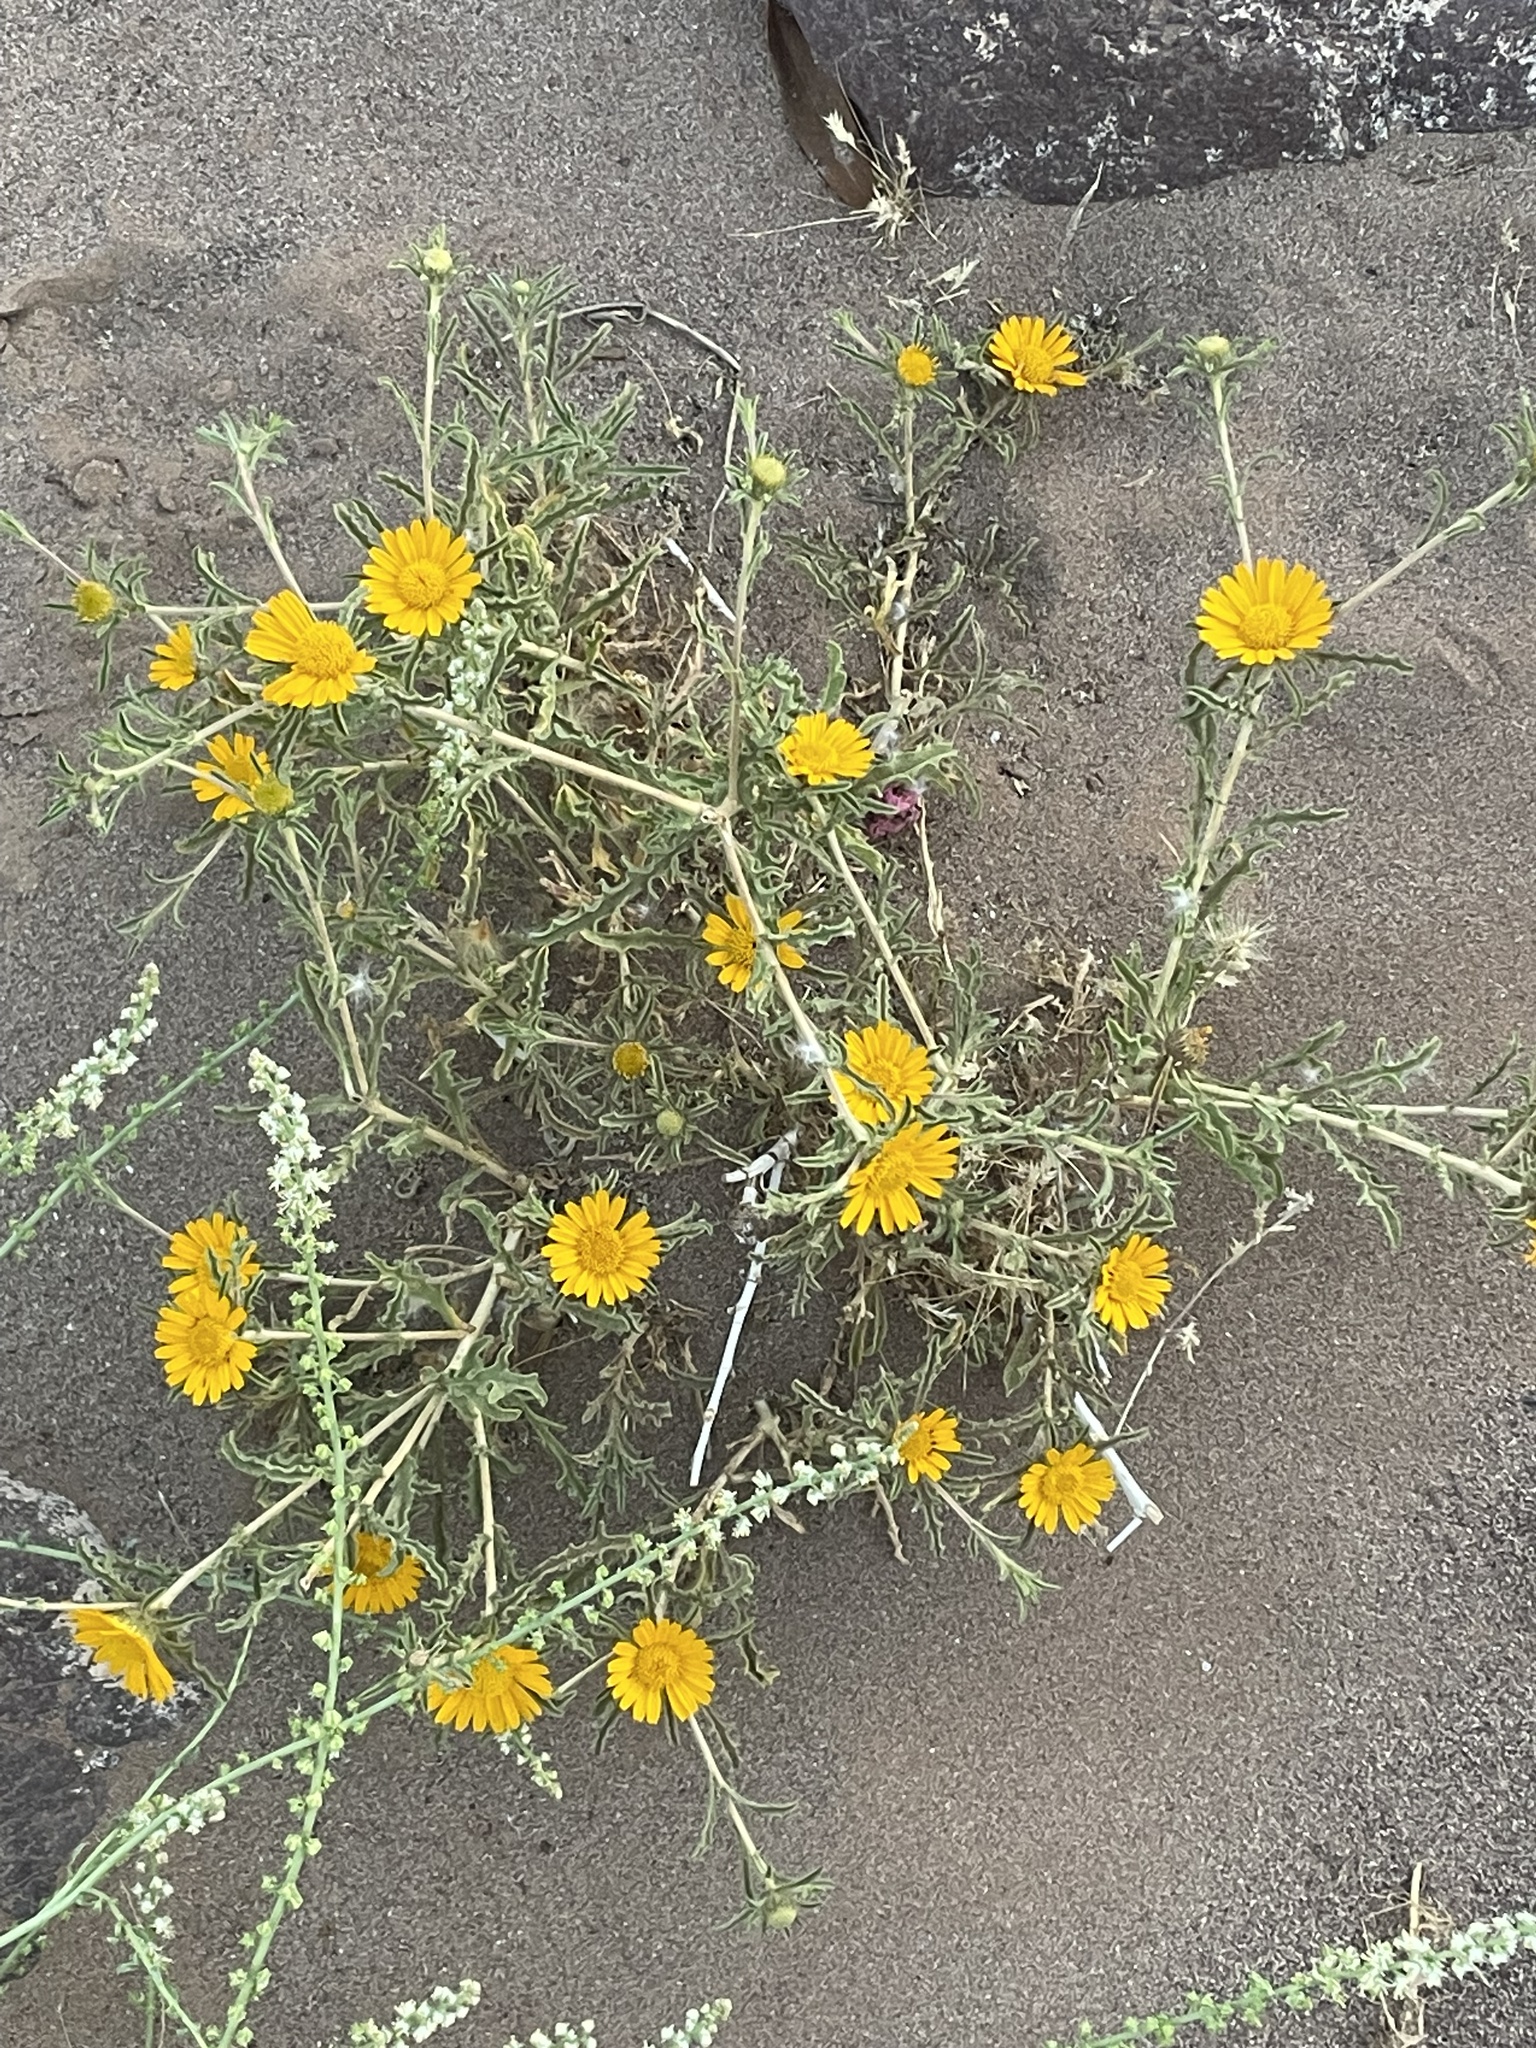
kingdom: Plantae
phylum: Tracheophyta
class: Magnoliopsida
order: Asterales
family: Asteraceae
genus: Asteriscus
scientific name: Asteriscus graveolens
